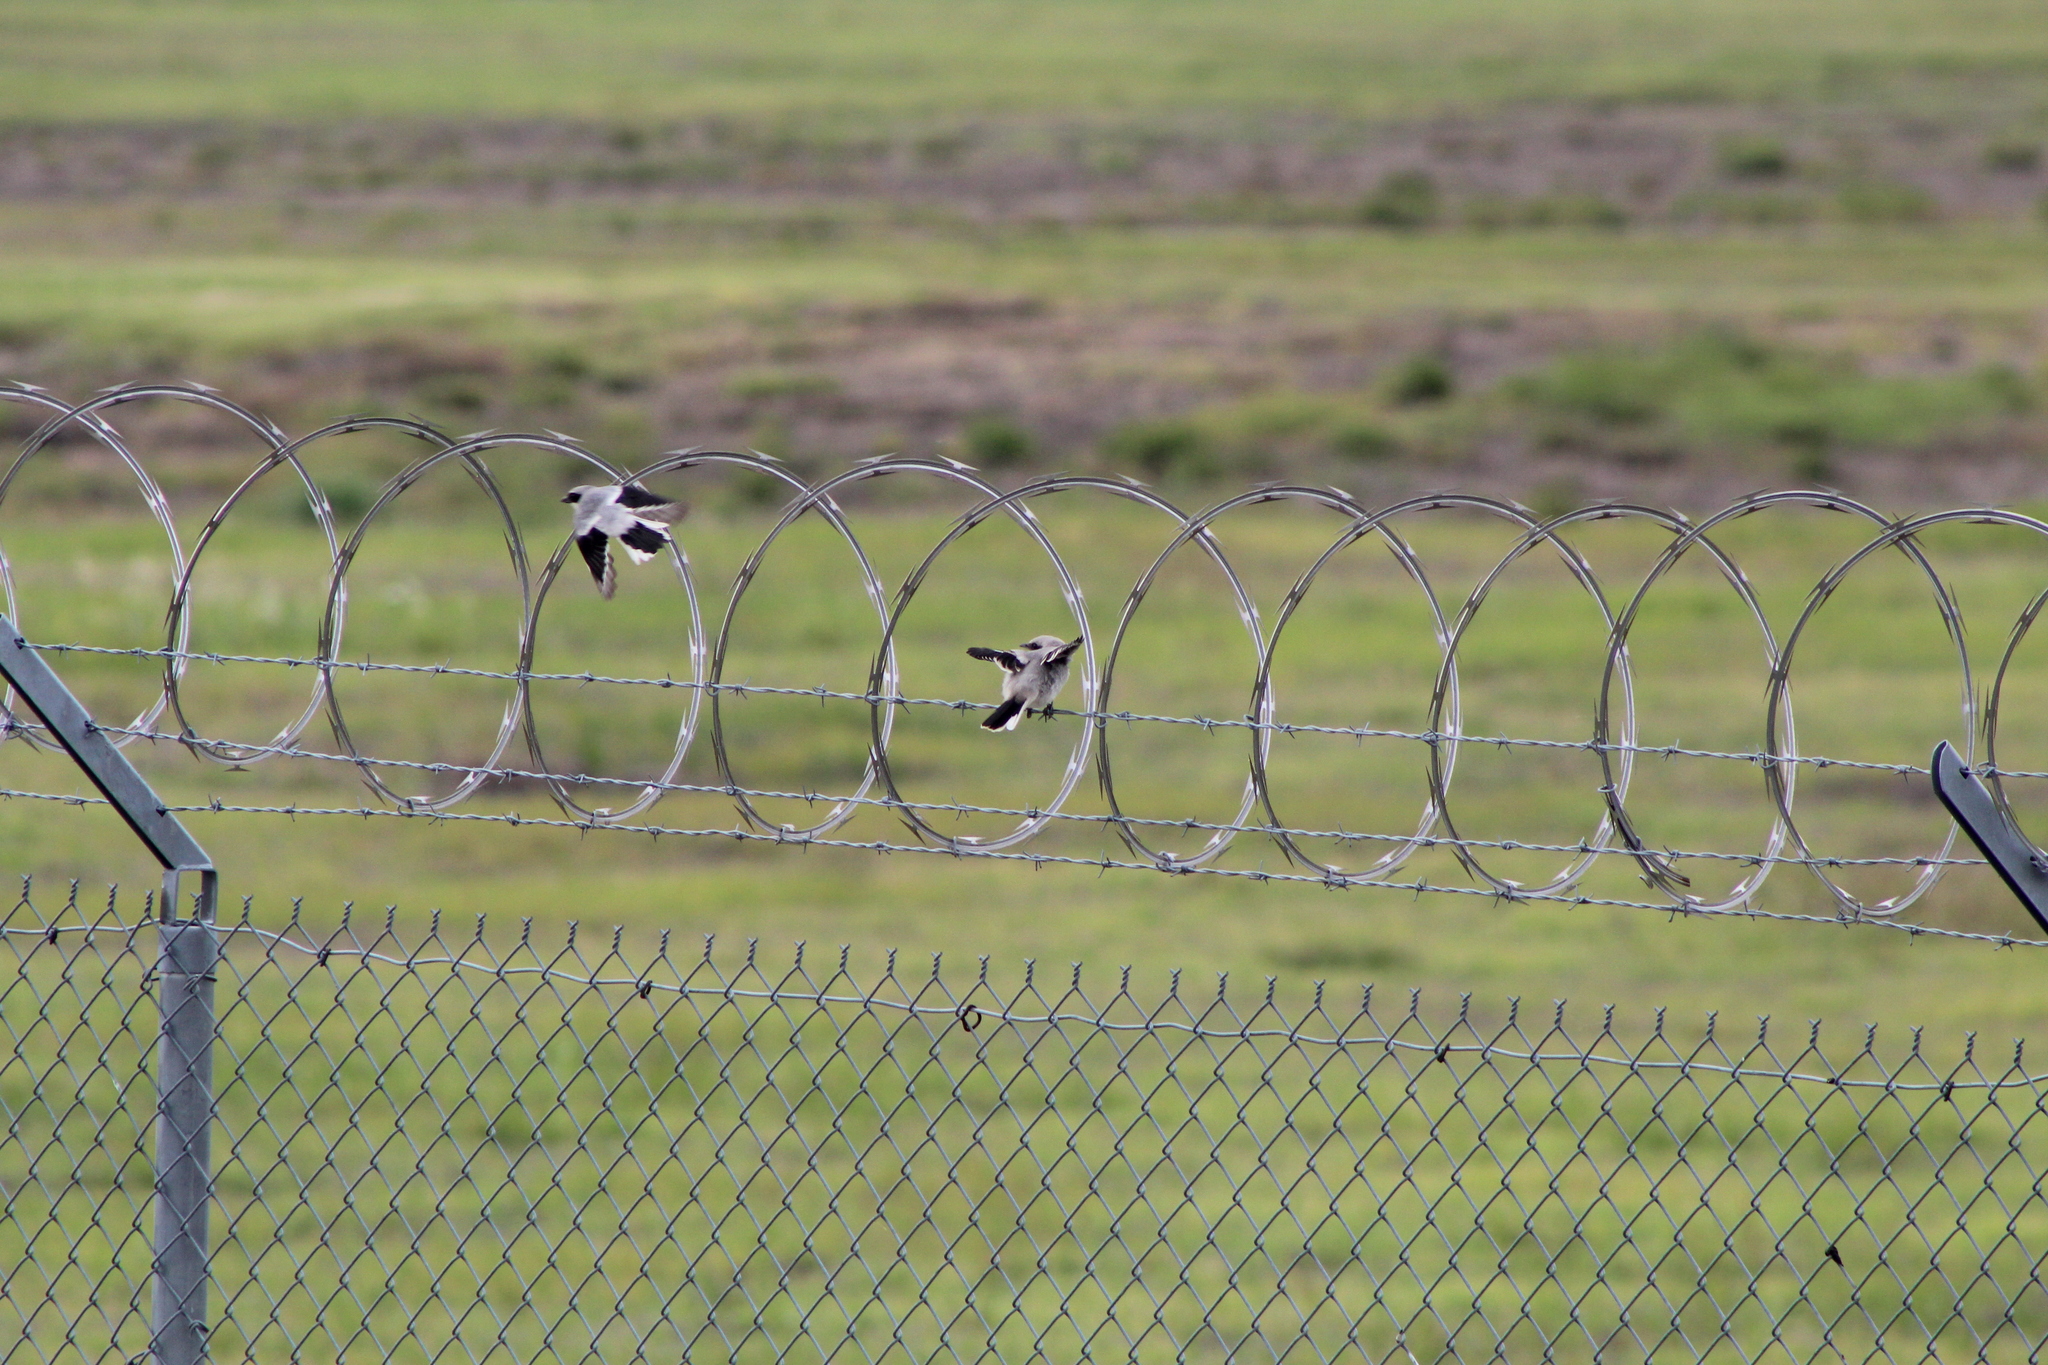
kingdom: Animalia
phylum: Chordata
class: Aves
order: Passeriformes
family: Laniidae
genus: Lanius
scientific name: Lanius ludovicianus
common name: Loggerhead shrike
